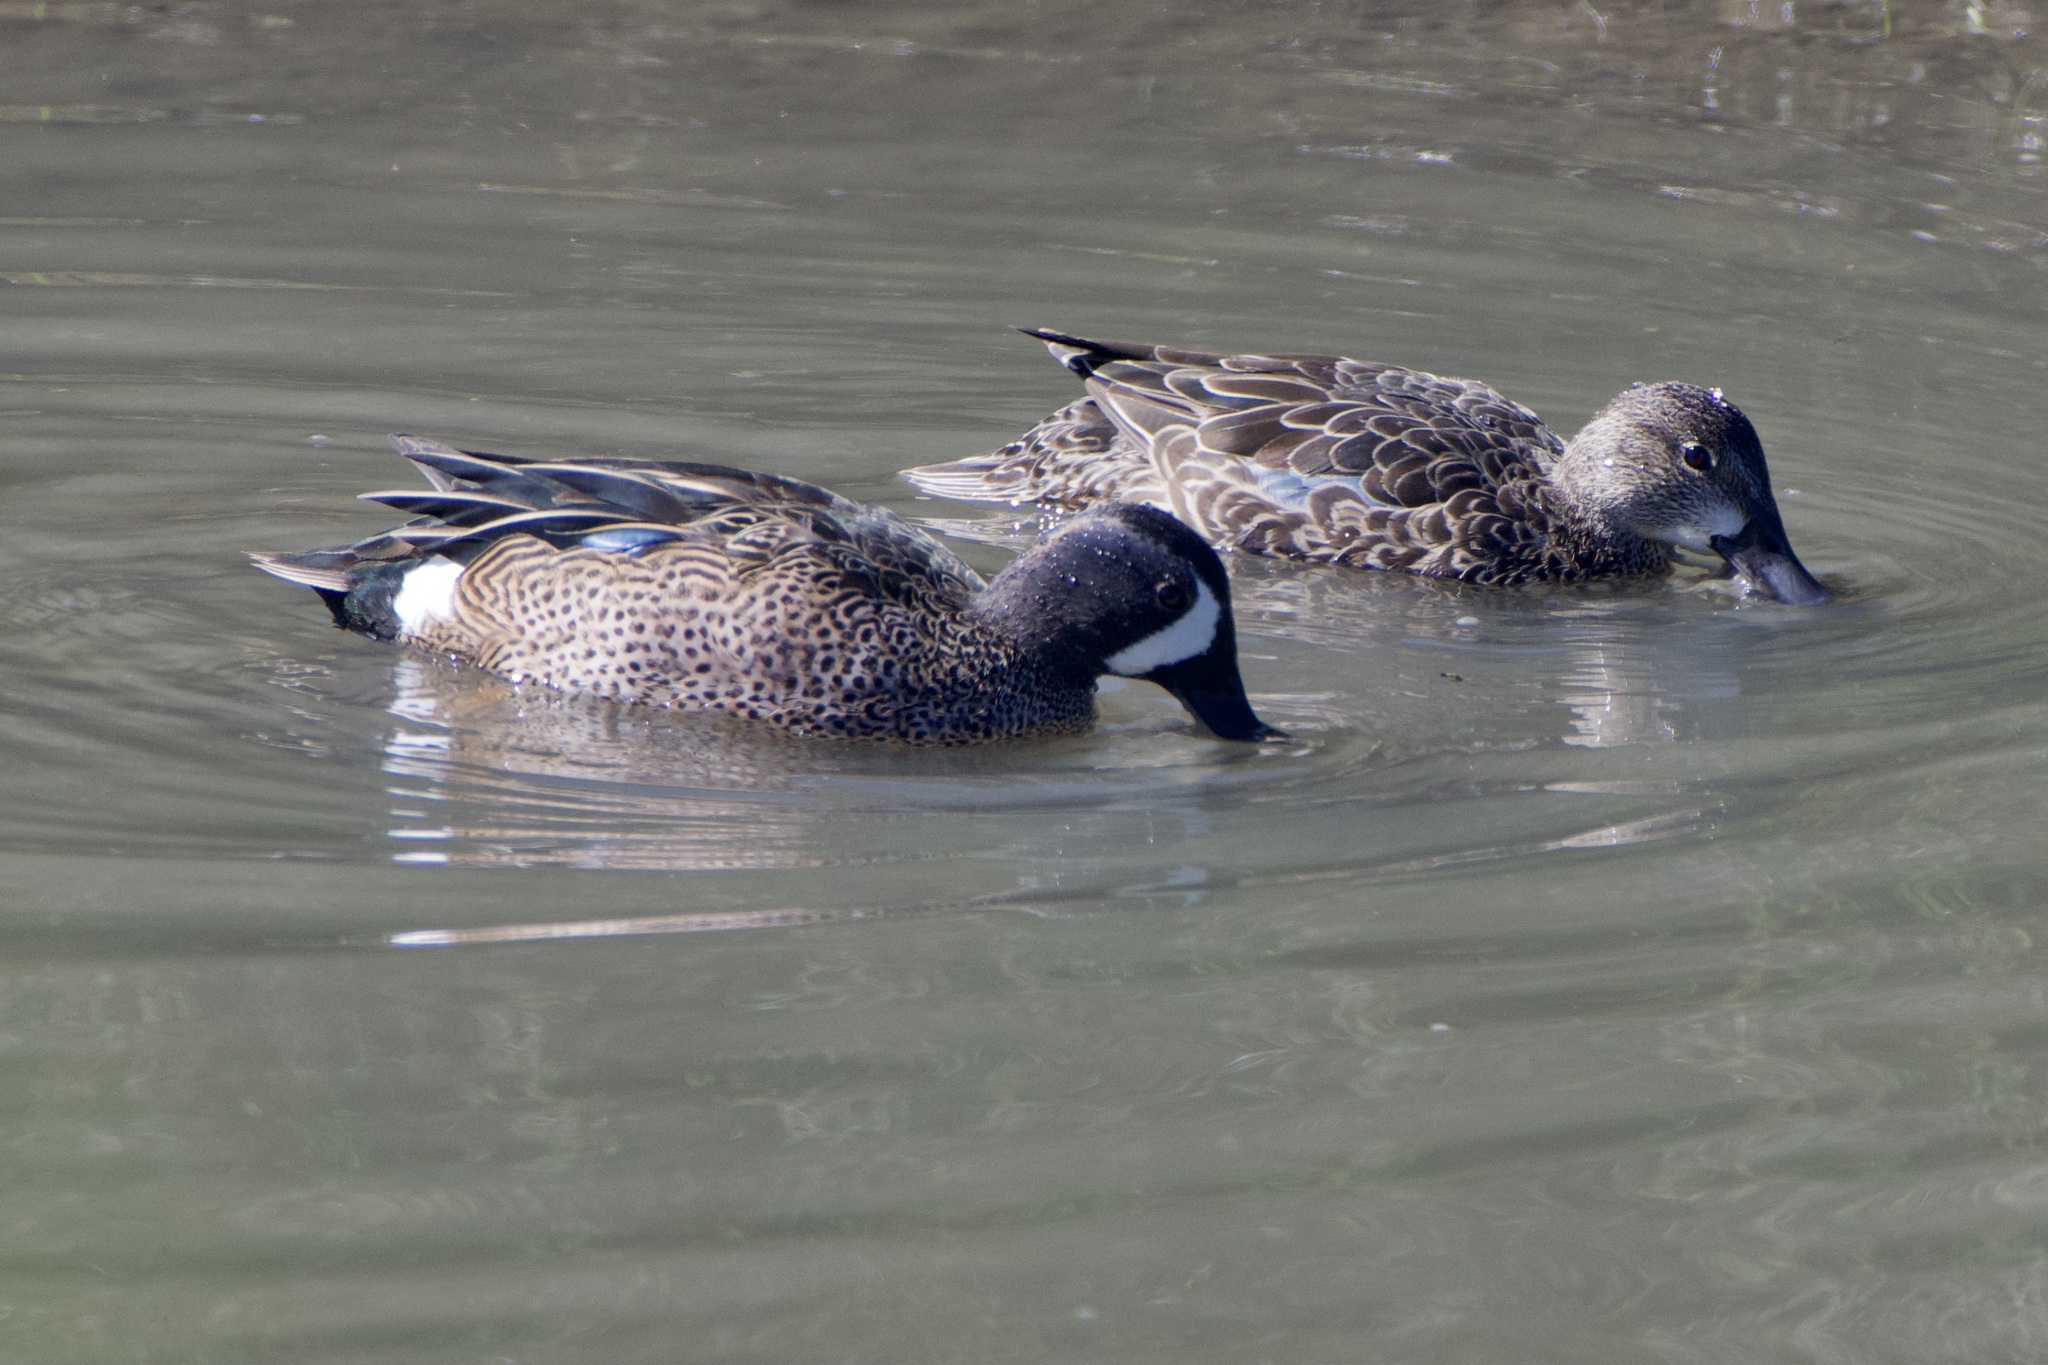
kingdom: Animalia
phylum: Chordata
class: Aves
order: Anseriformes
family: Anatidae
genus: Spatula
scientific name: Spatula discors
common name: Blue-winged teal
